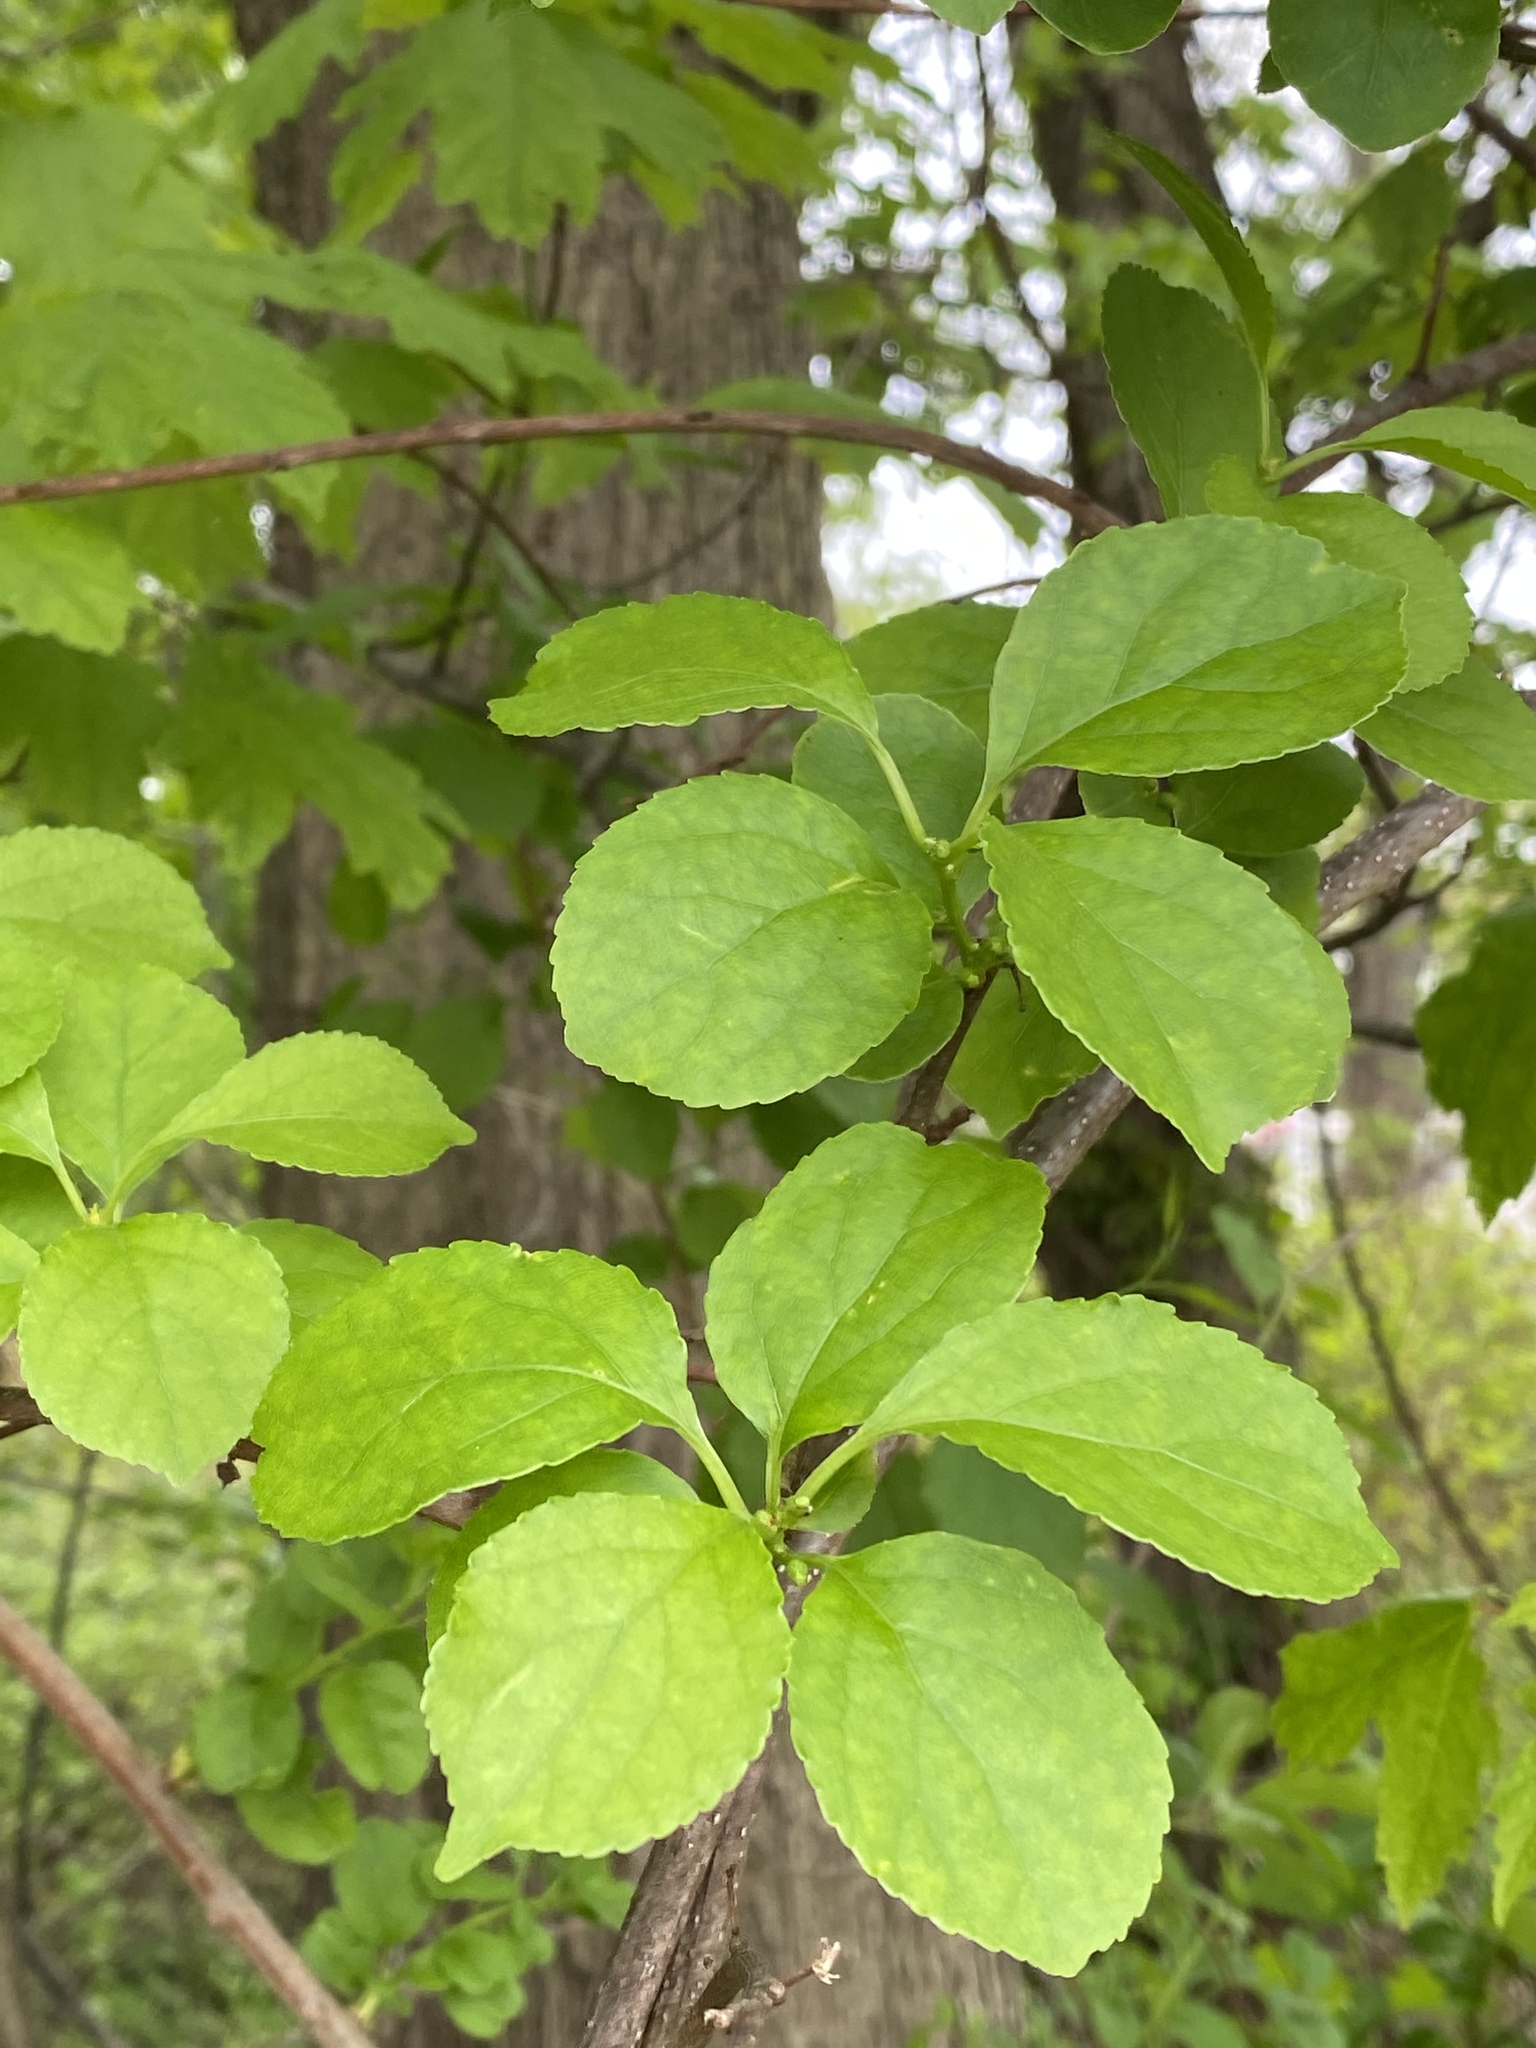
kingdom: Plantae
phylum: Tracheophyta
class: Magnoliopsida
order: Celastrales
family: Celastraceae
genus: Celastrus
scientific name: Celastrus orbiculatus
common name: Oriental bittersweet
